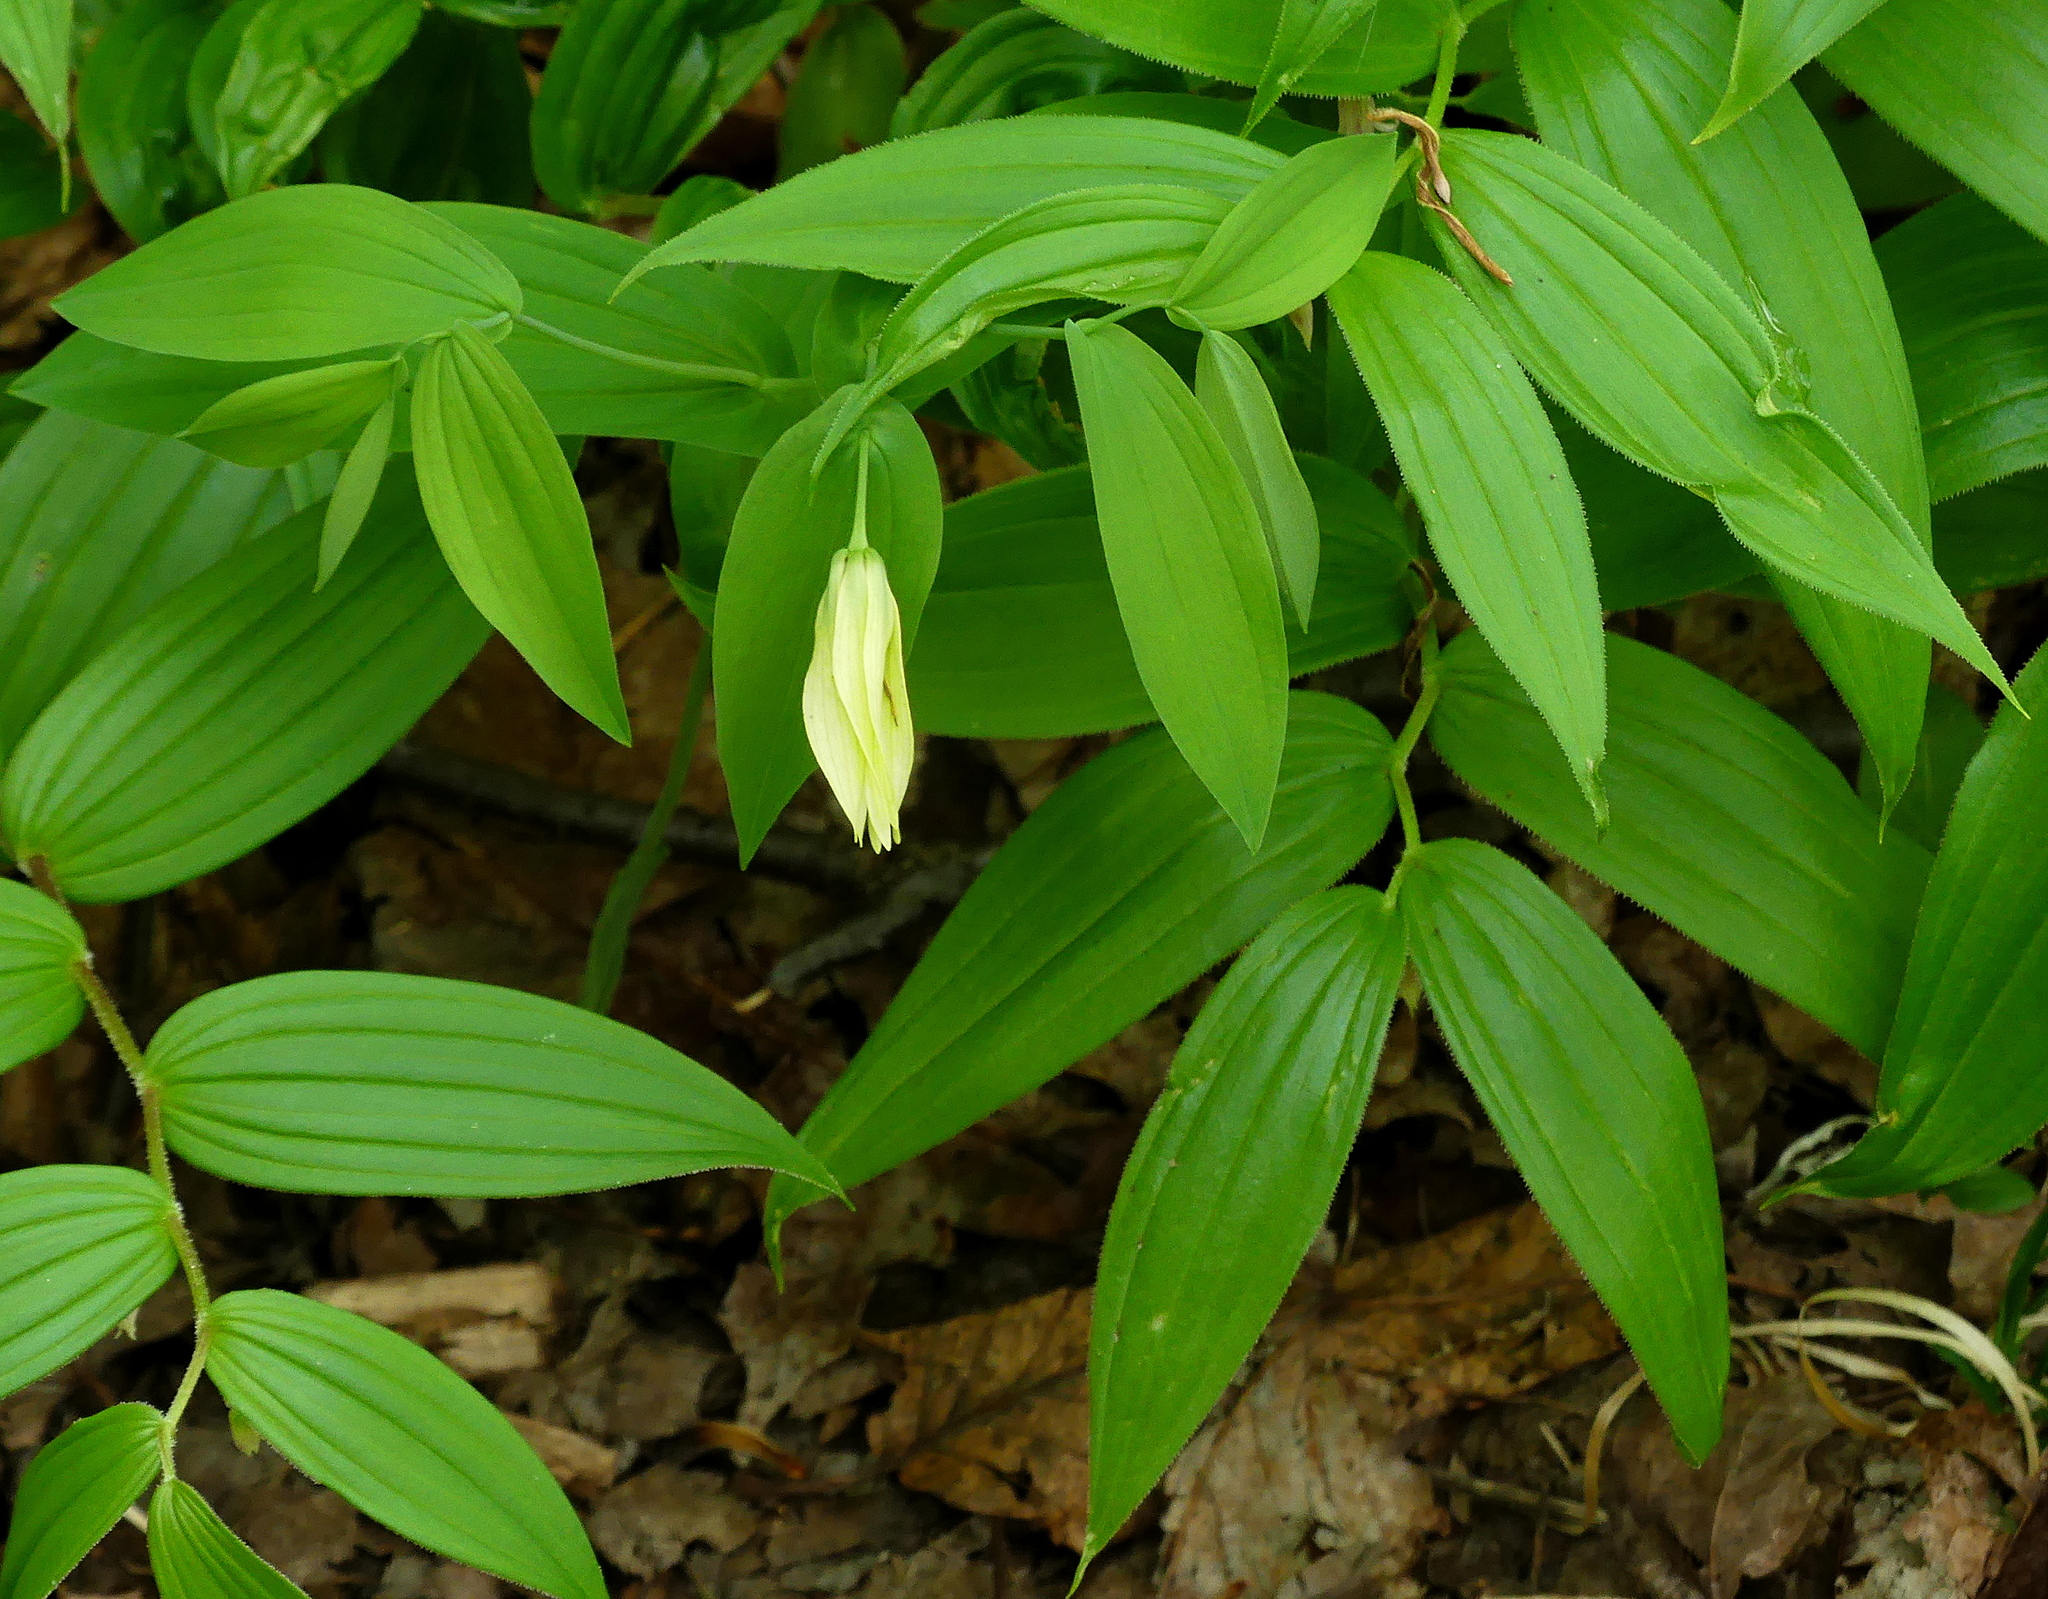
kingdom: Plantae
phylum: Tracheophyta
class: Liliopsida
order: Liliales
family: Colchicaceae
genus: Uvularia
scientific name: Uvularia grandiflora
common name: Bellwort
